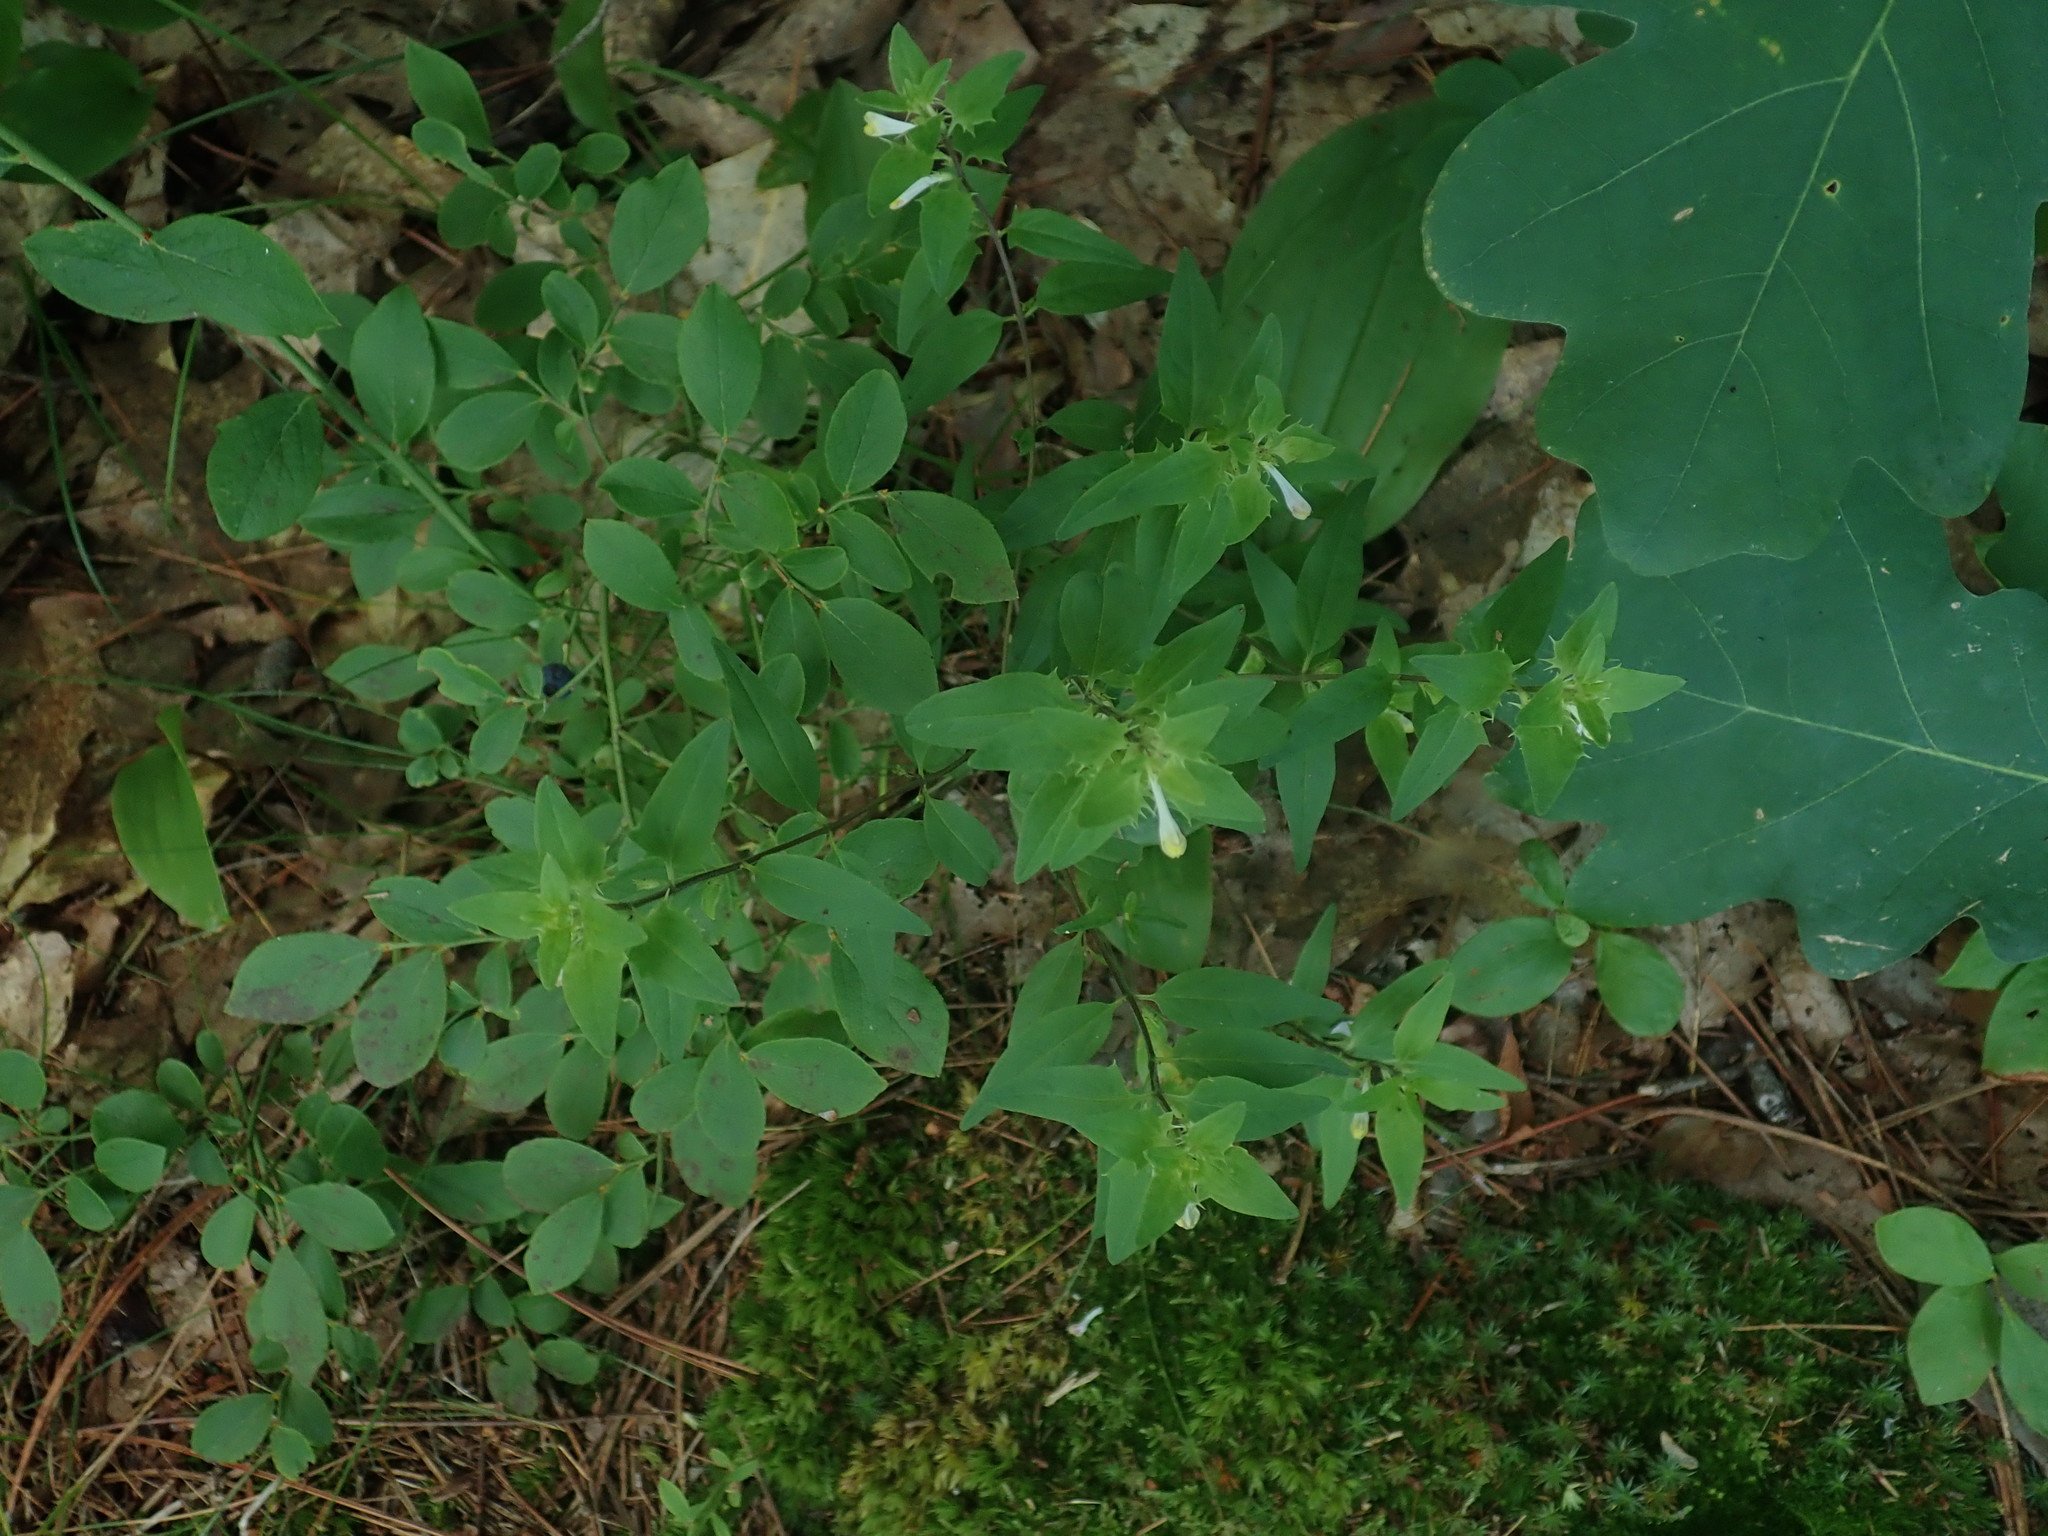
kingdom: Plantae
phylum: Tracheophyta
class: Magnoliopsida
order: Lamiales
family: Orobanchaceae
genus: Melampyrum
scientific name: Melampyrum lineare
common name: American cow-wheat
